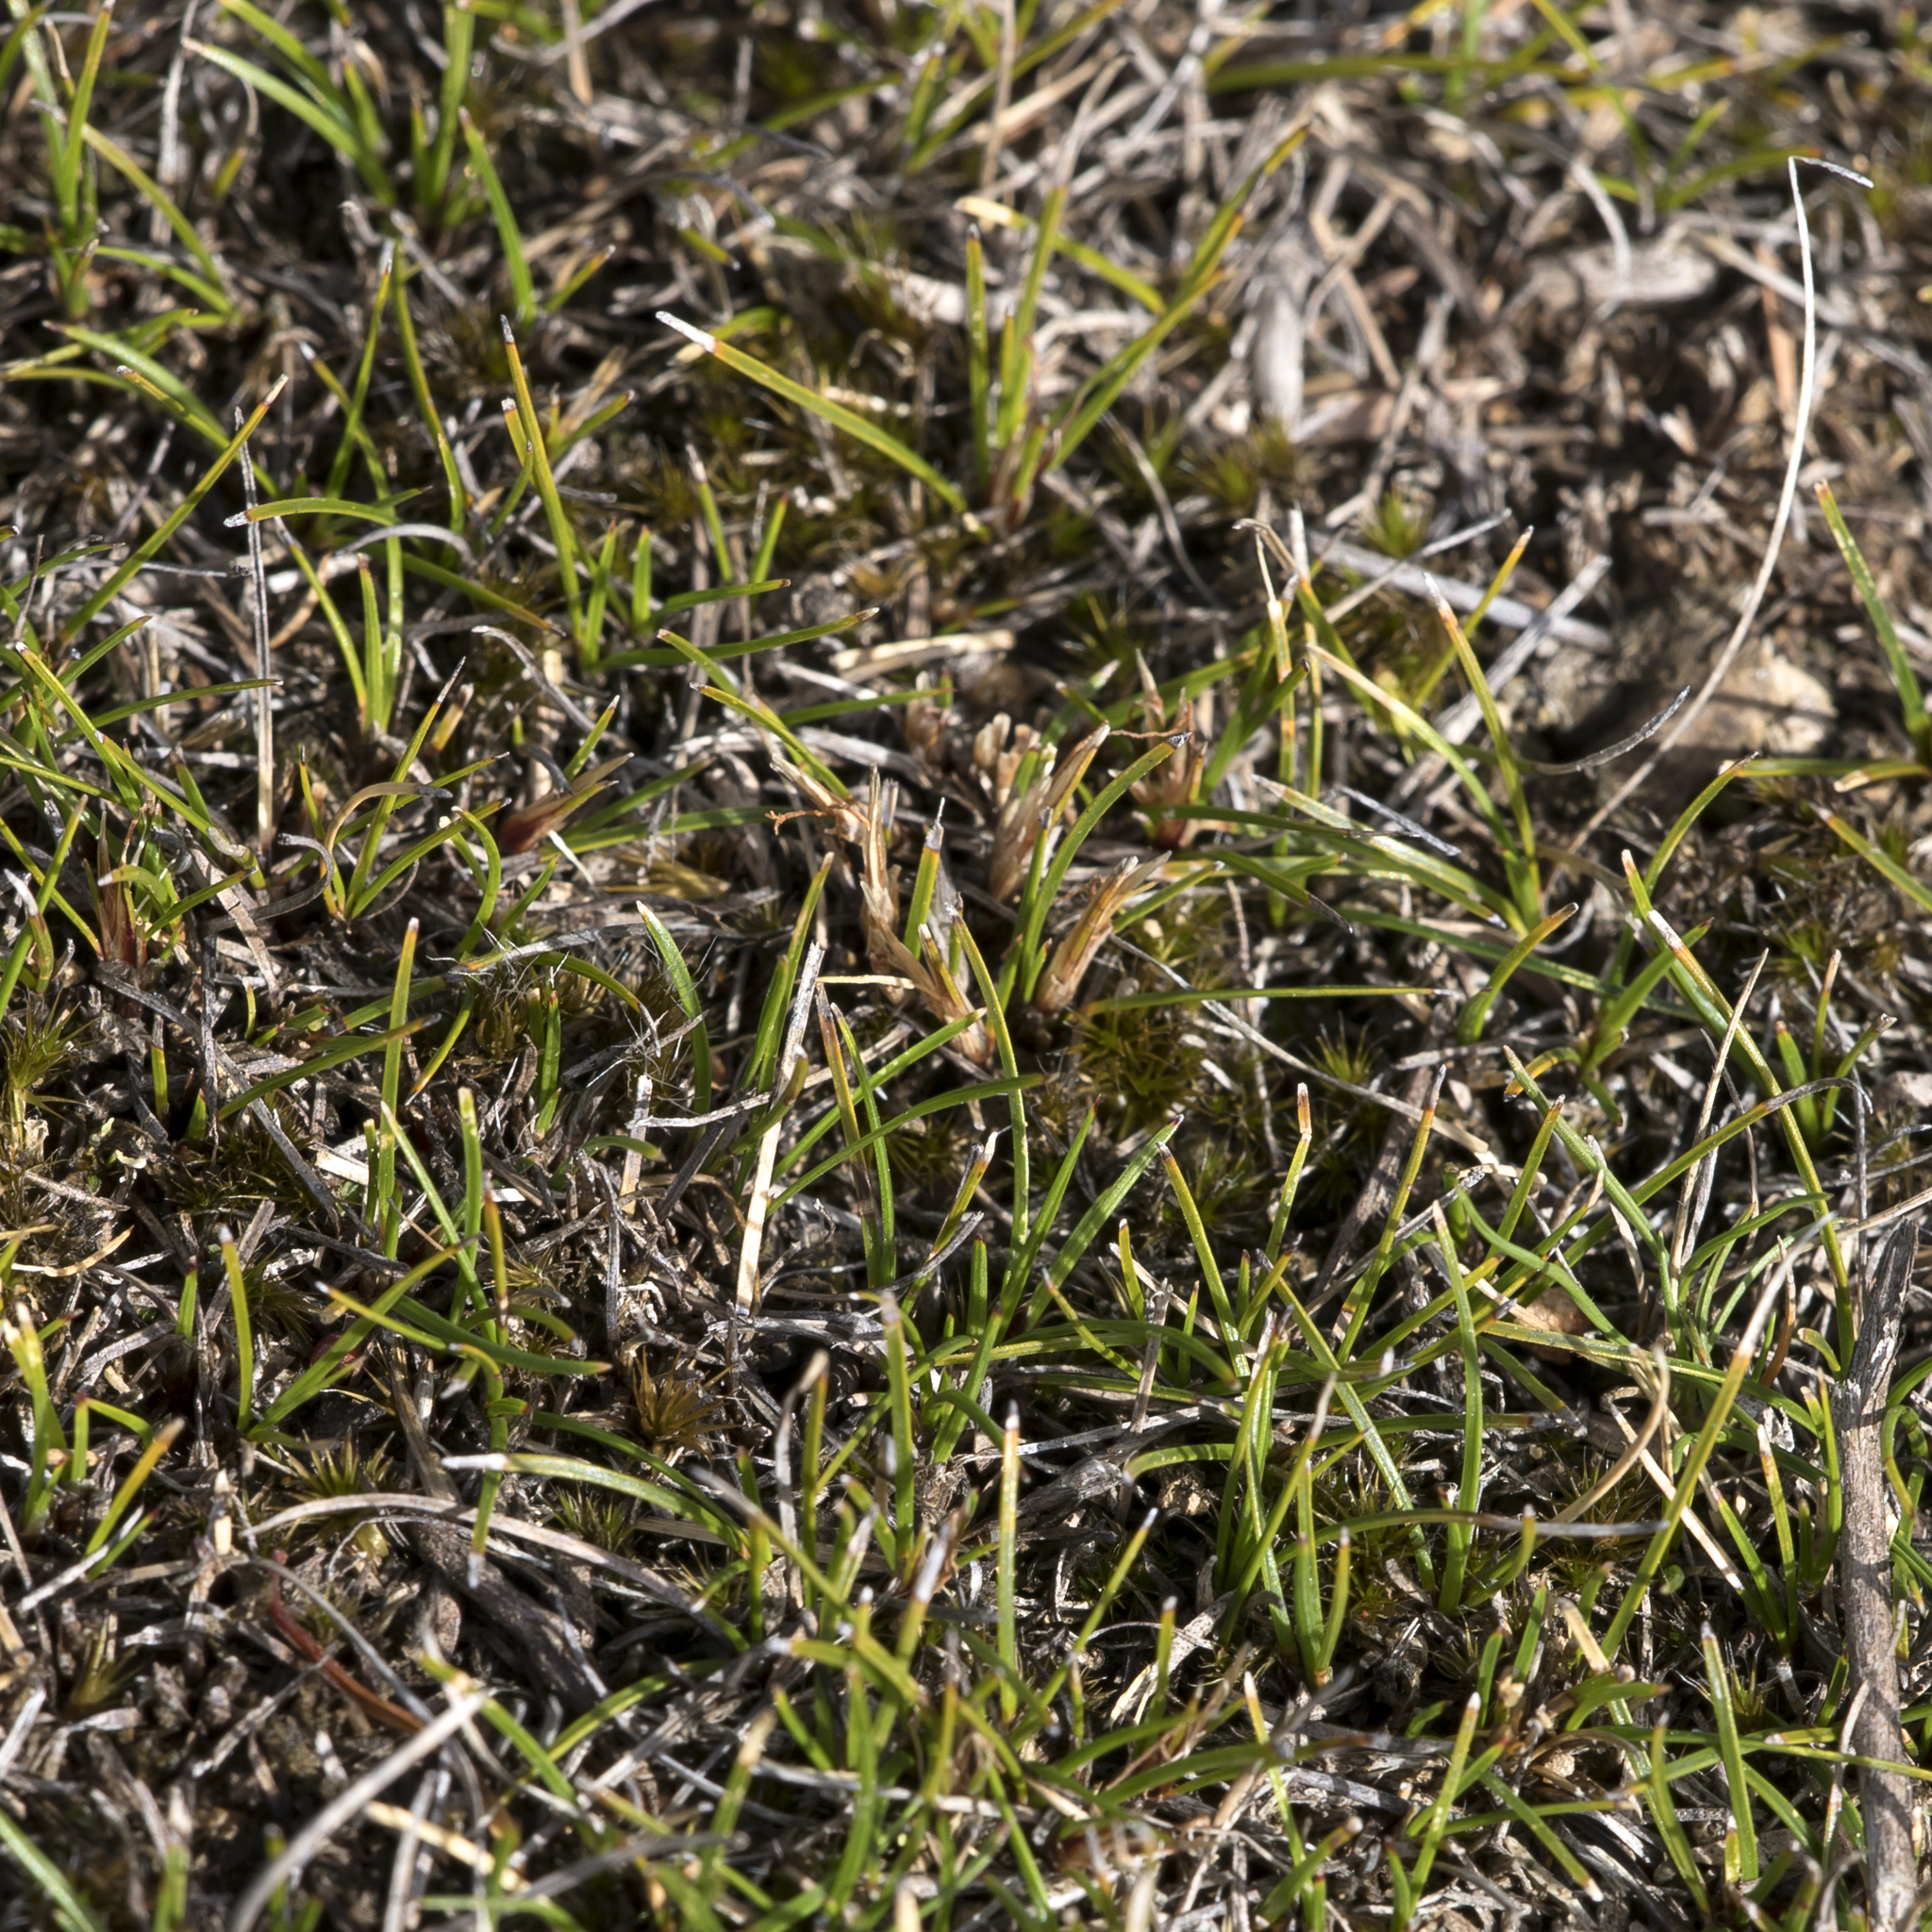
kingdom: Plantae
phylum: Tracheophyta
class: Liliopsida
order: Poales
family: Cyperaceae
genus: Schoenus
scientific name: Schoenus breviculmis
